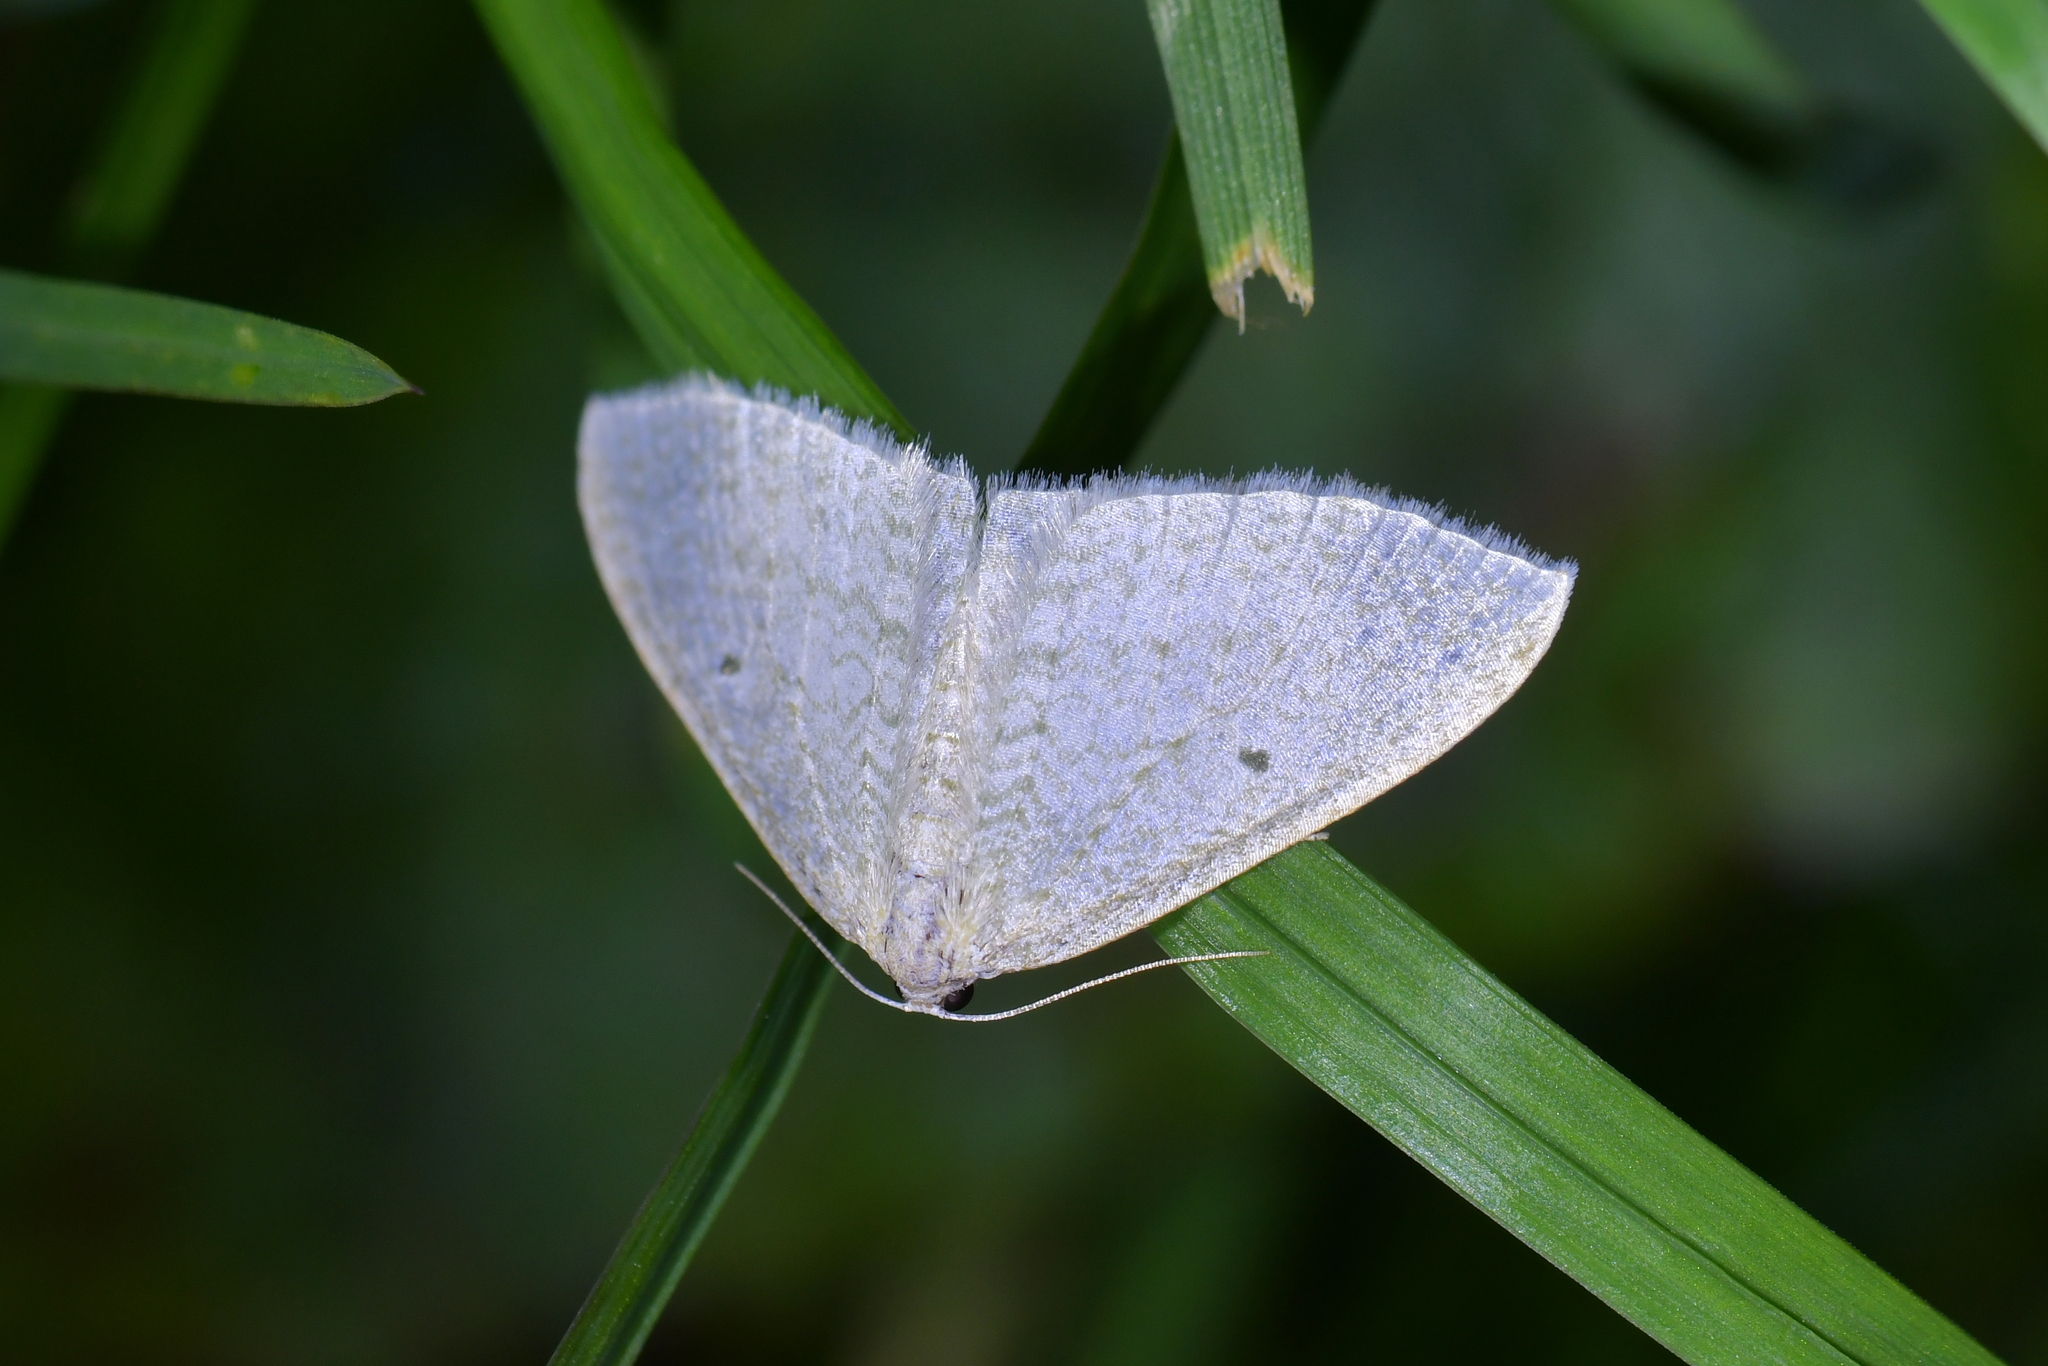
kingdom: Animalia
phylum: Arthropoda
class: Insecta
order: Lepidoptera
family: Geometridae
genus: Poecilasthena
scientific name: Poecilasthena pulchraria
